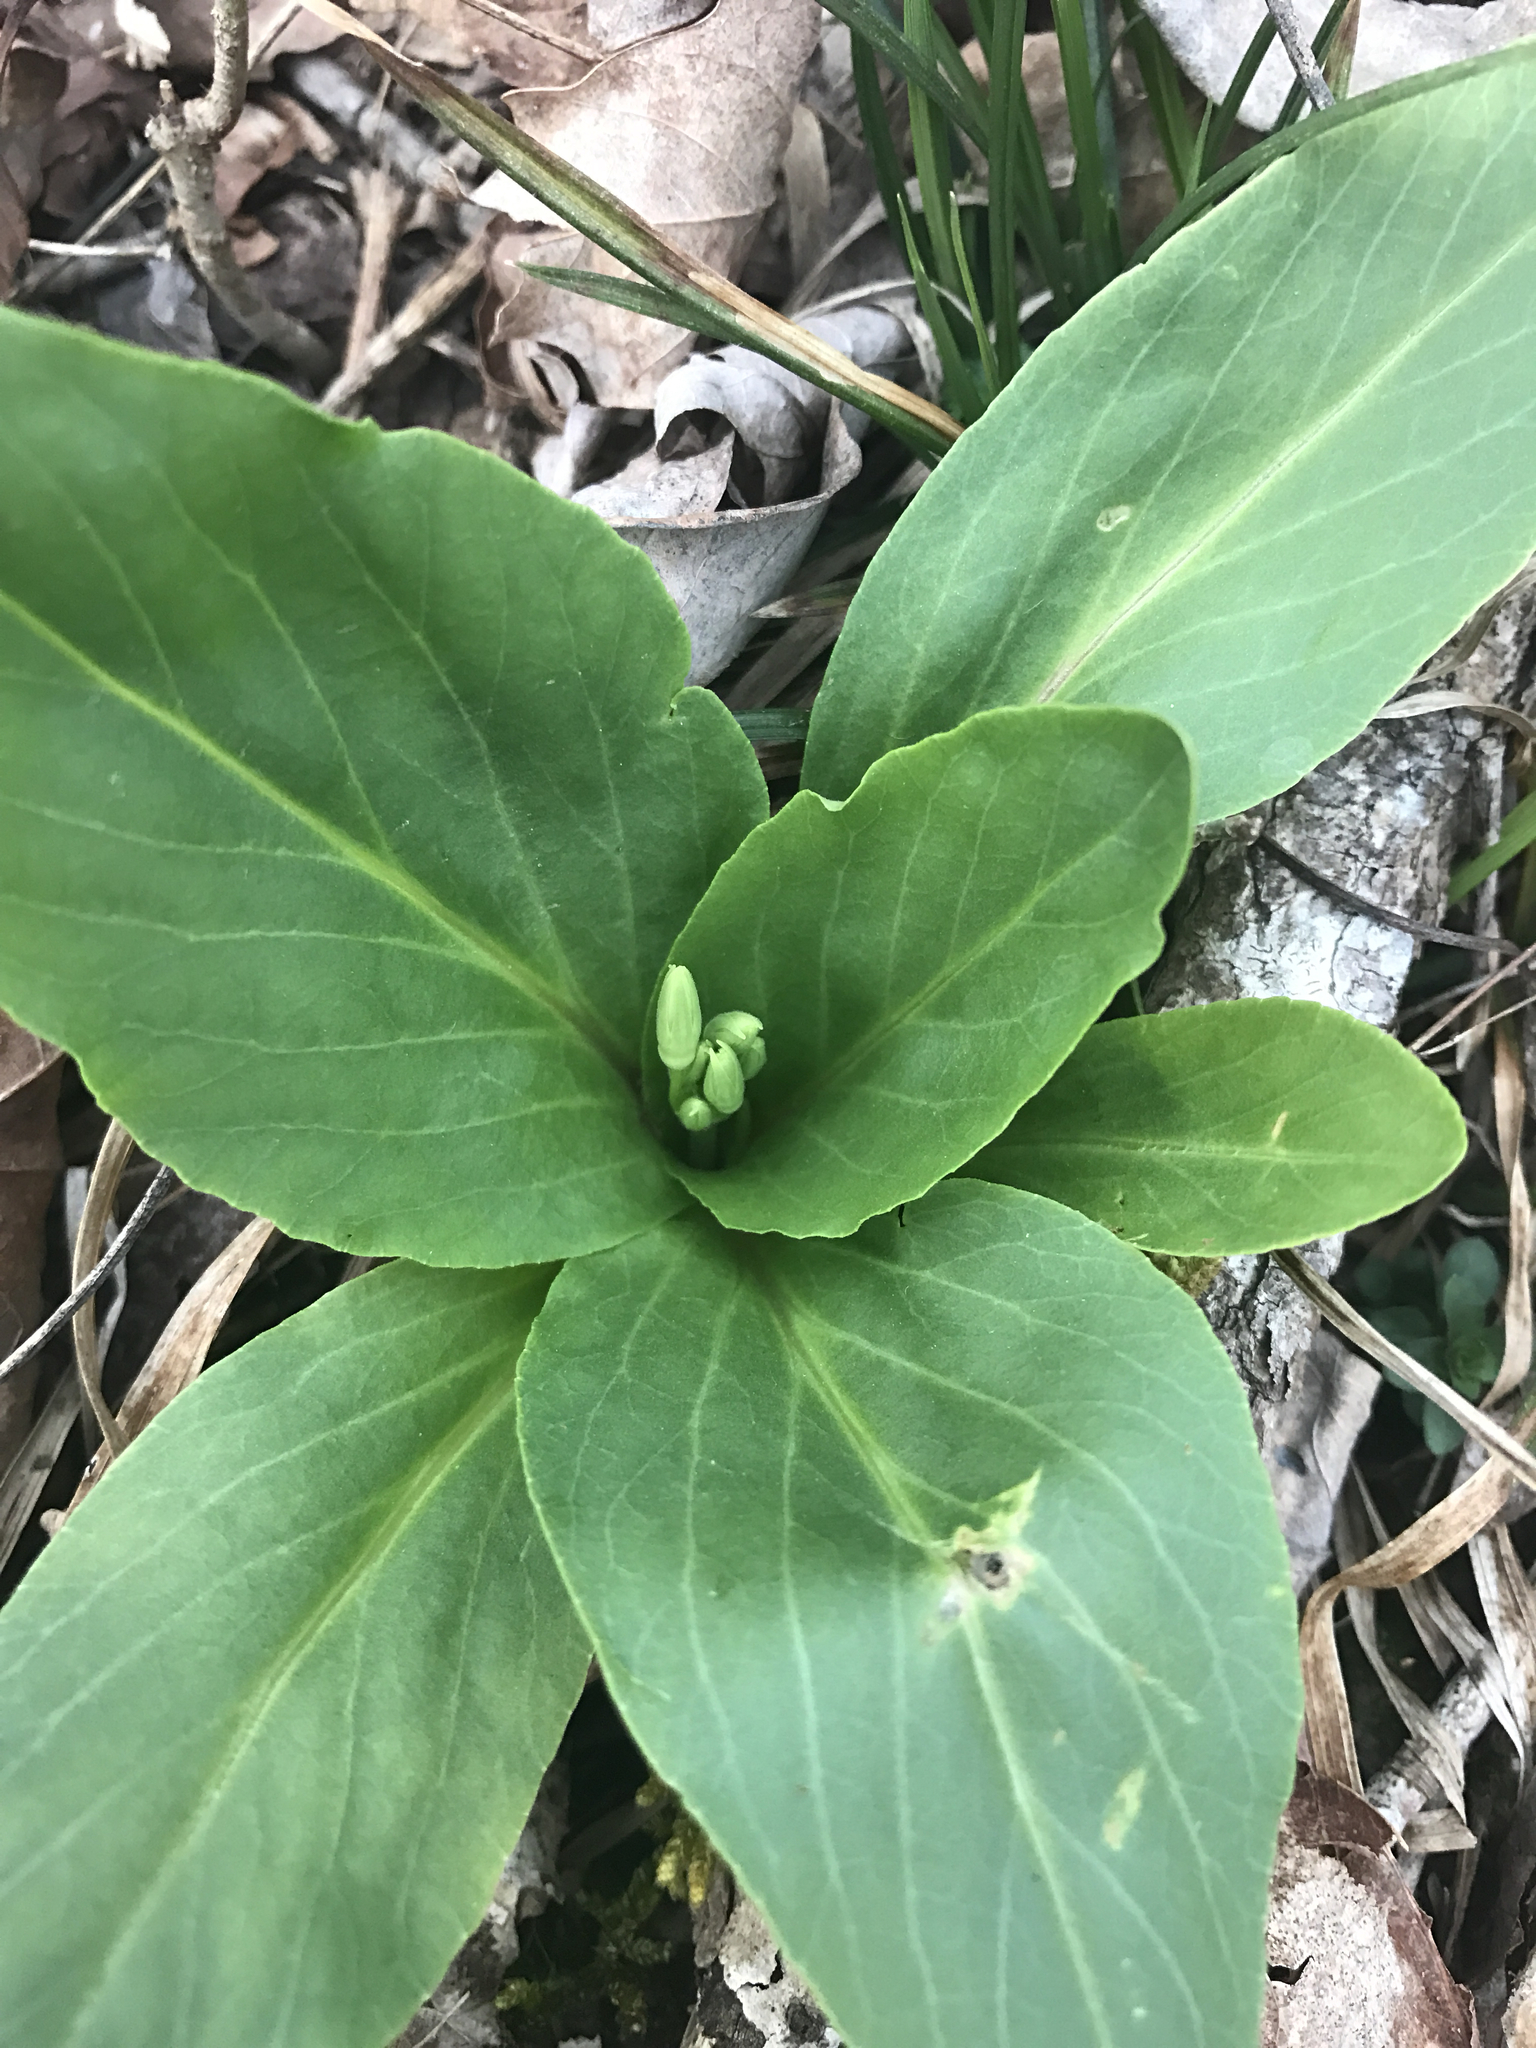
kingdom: Plantae
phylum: Tracheophyta
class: Magnoliopsida
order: Ericales
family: Primulaceae
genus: Dodecatheon
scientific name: Dodecatheon meadia
